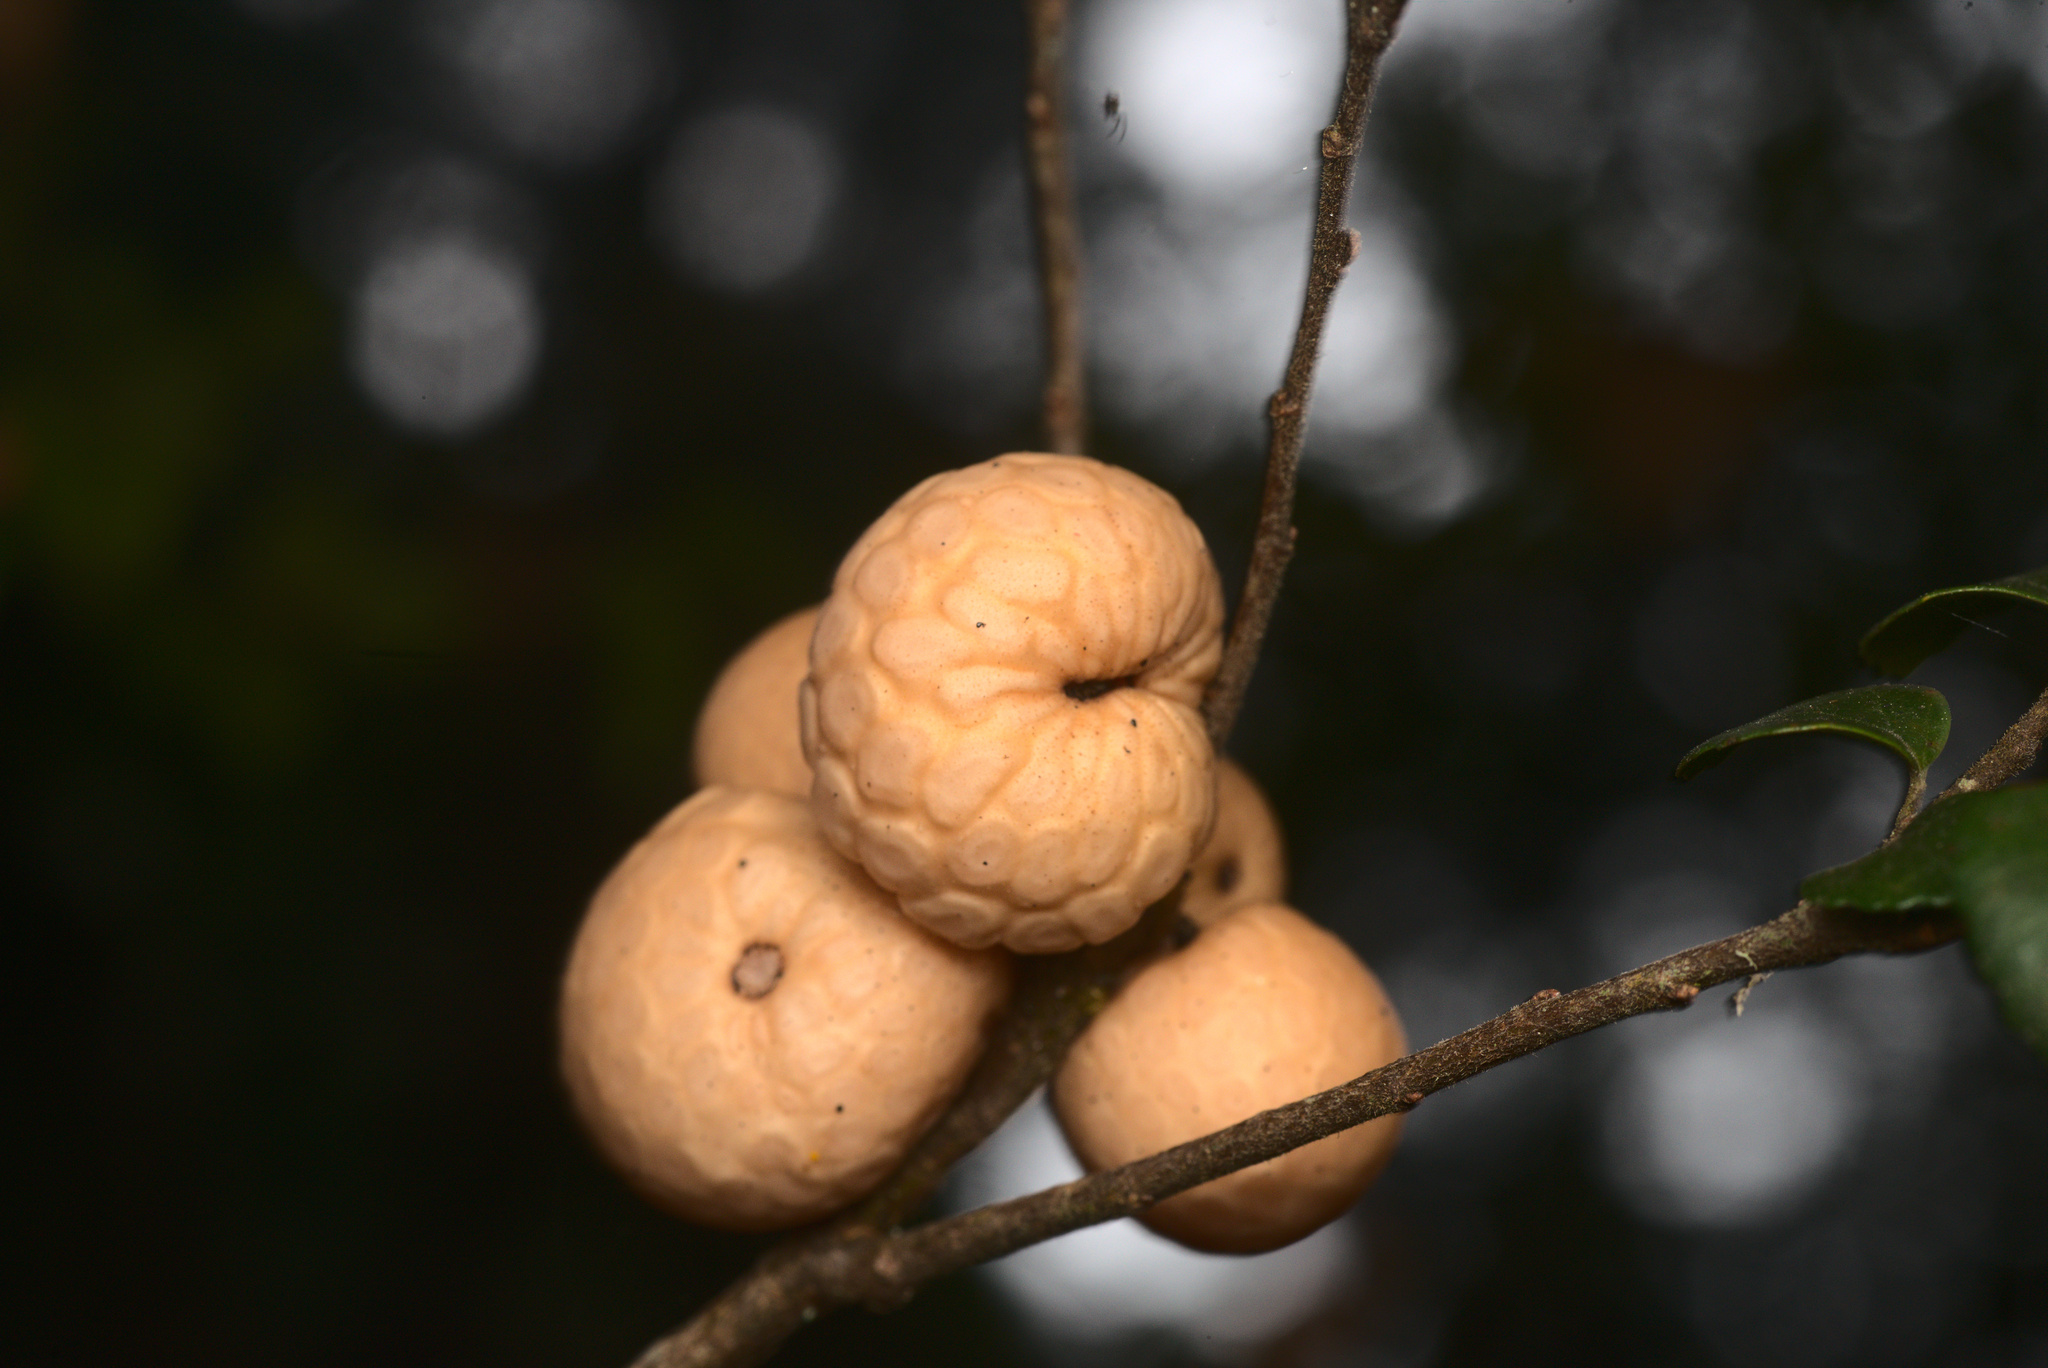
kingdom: Fungi
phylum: Ascomycota
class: Leotiomycetes
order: Cyttariales
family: Cyttariaceae
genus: Cyttaria
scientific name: Cyttaria gunnii
